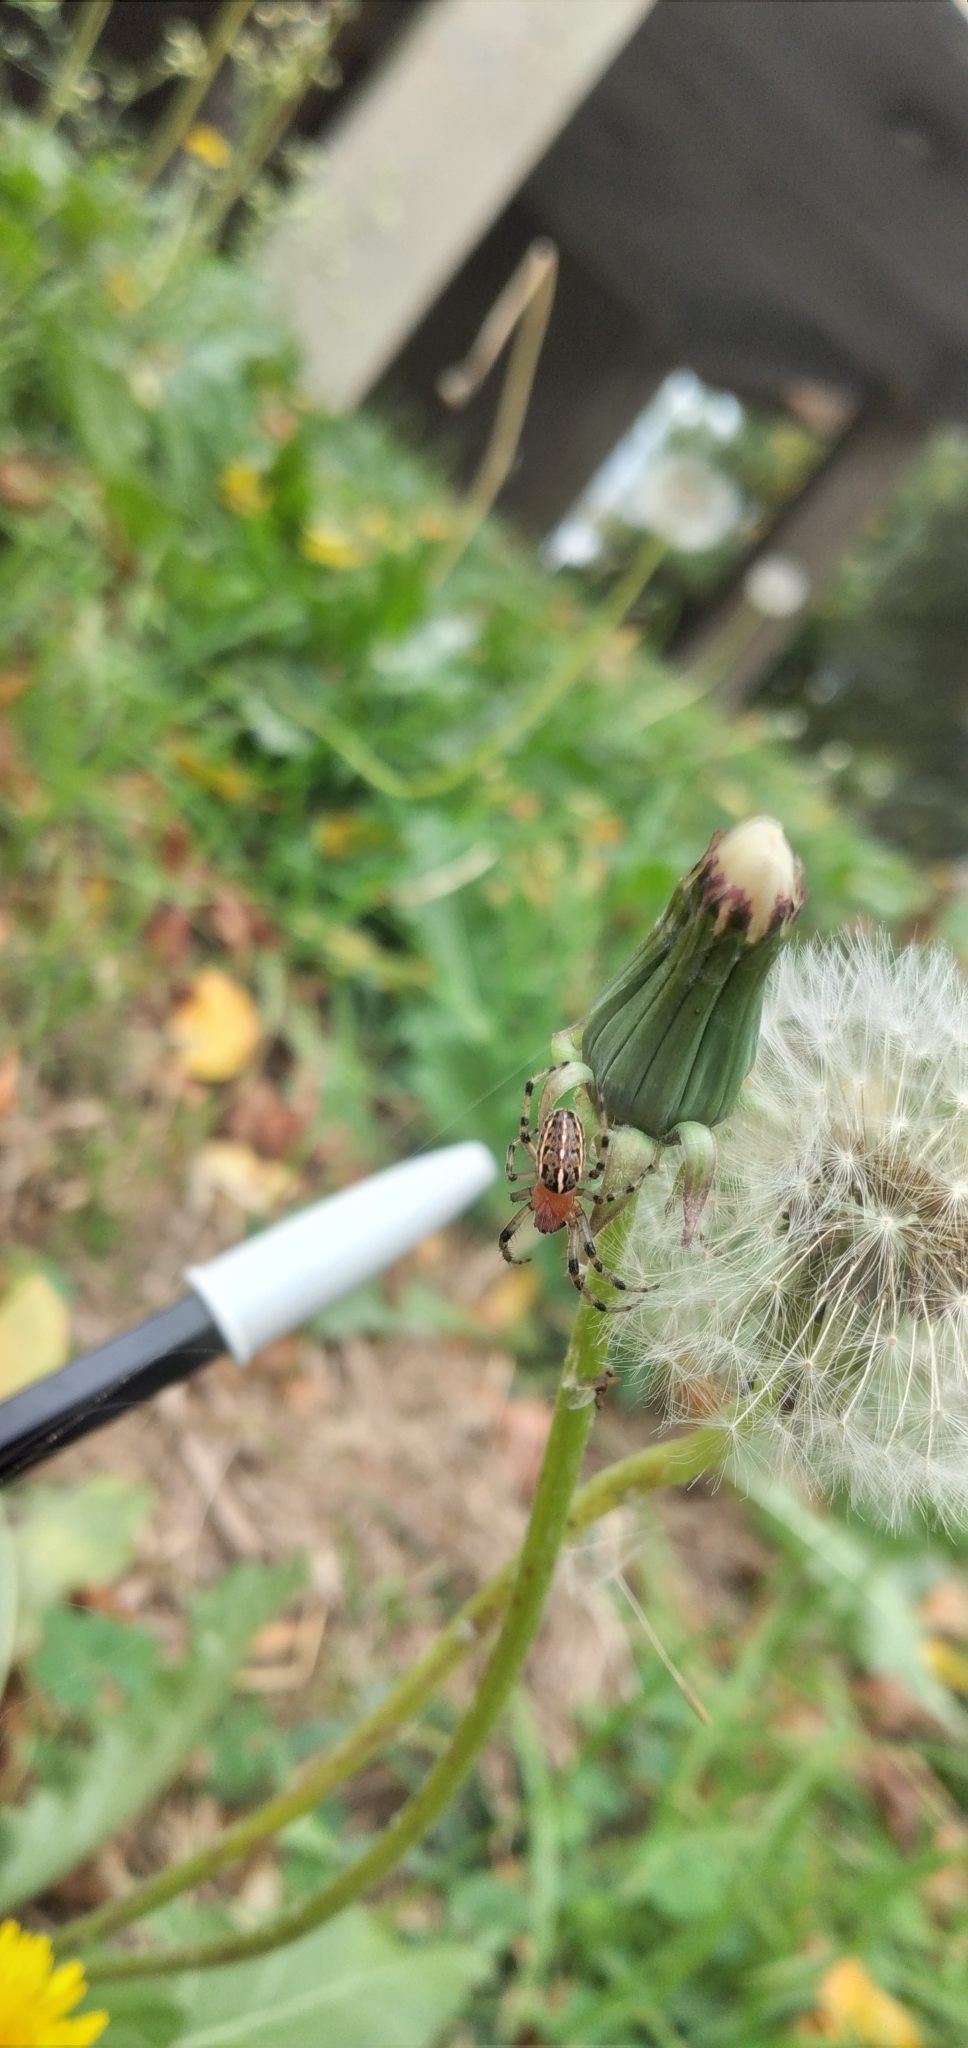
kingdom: Animalia
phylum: Arthropoda
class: Arachnida
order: Araneae
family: Araneidae
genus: Alpaida
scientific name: Alpaida veniliae
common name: Orb weavers
